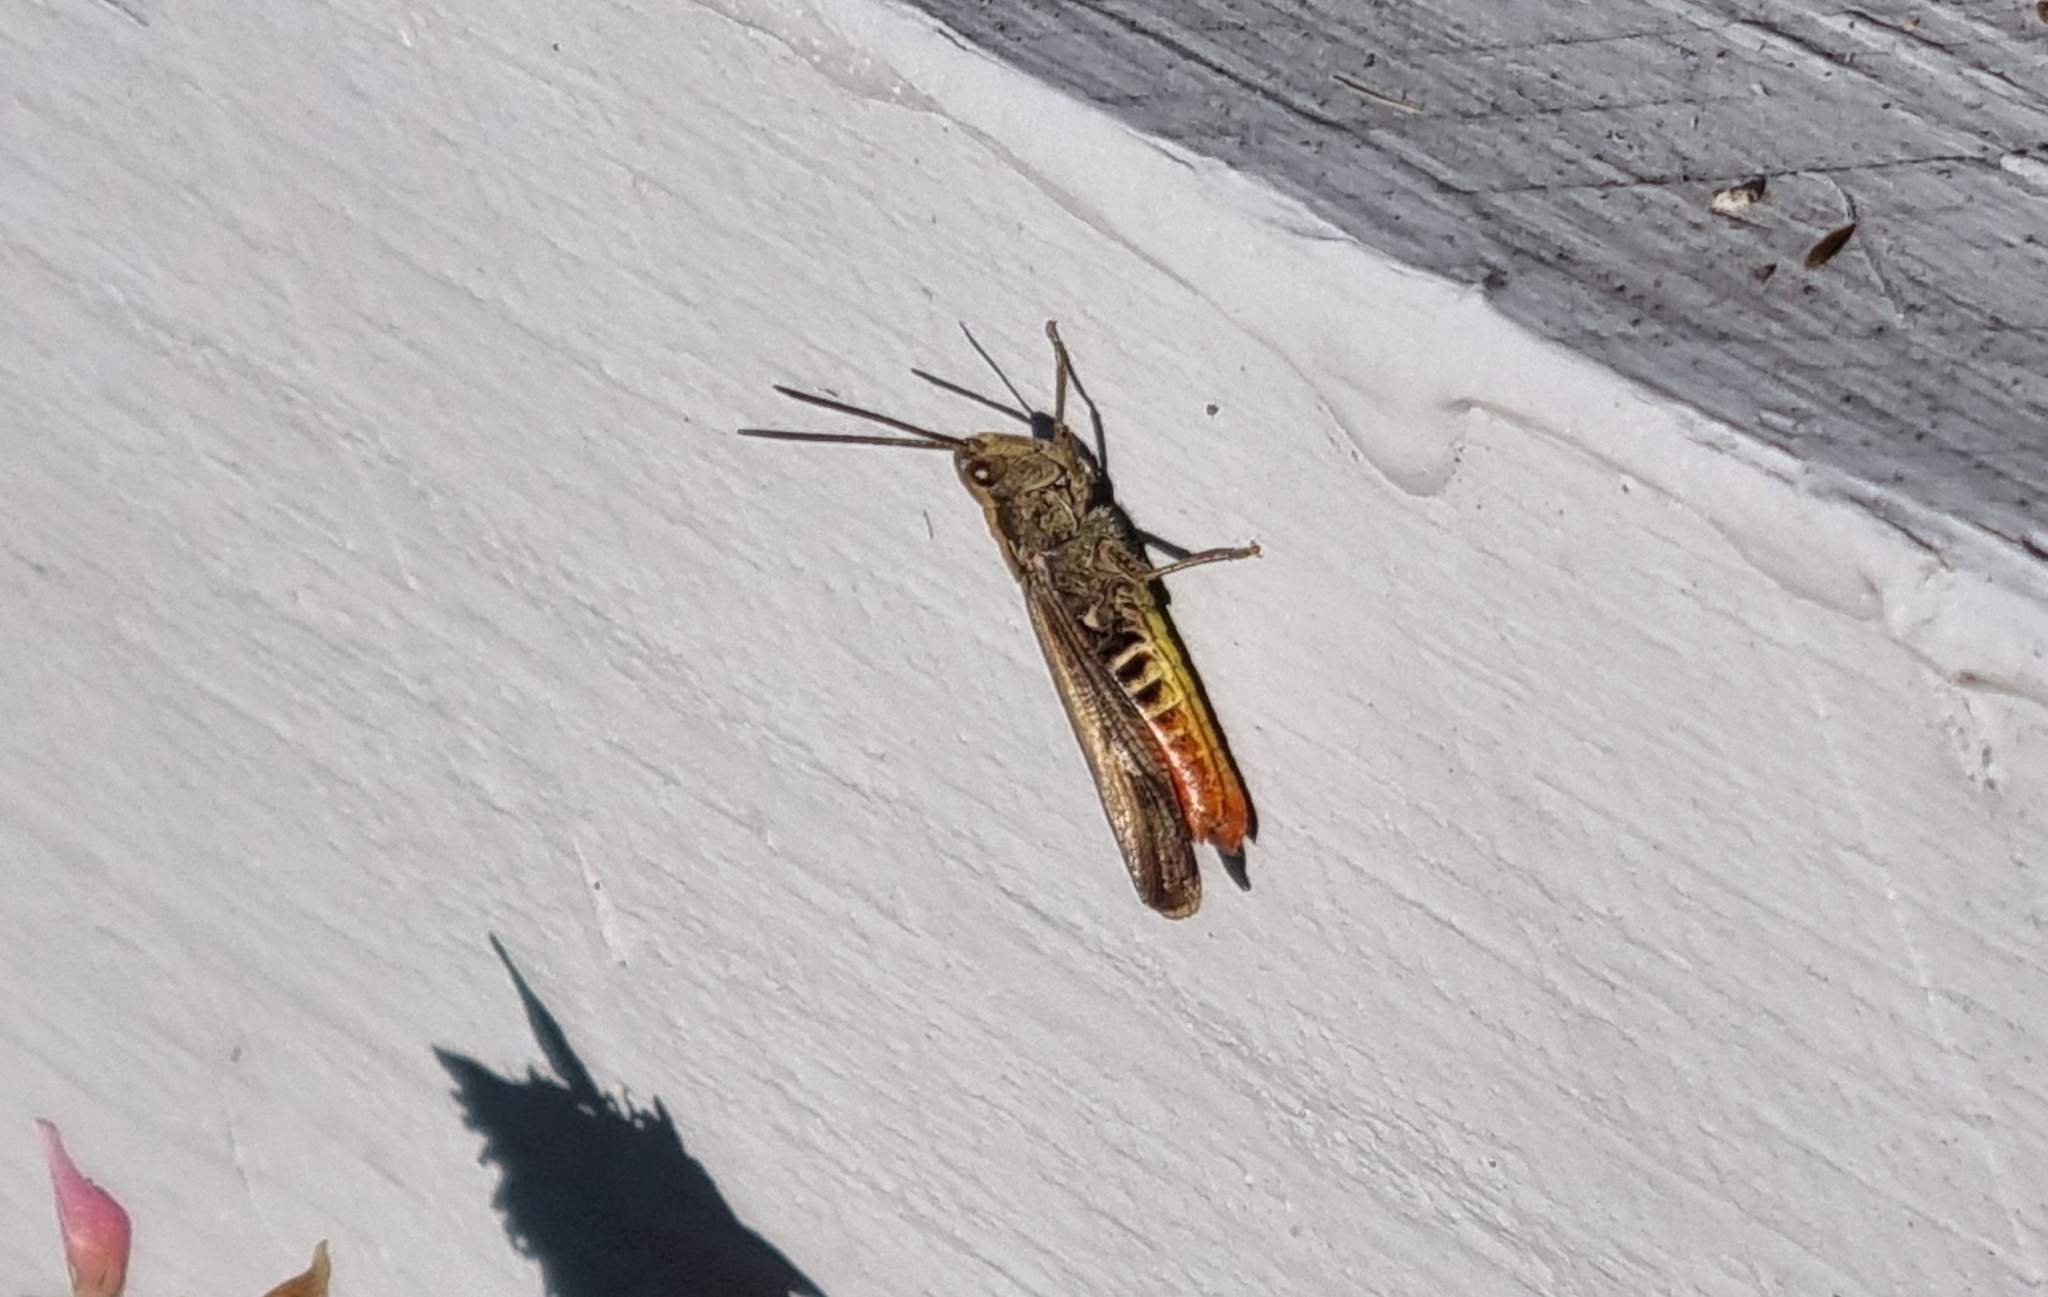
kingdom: Animalia
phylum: Arthropoda
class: Insecta
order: Orthoptera
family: Acrididae
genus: Chorthippus
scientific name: Chorthippus brunneus
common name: Field grasshopper
